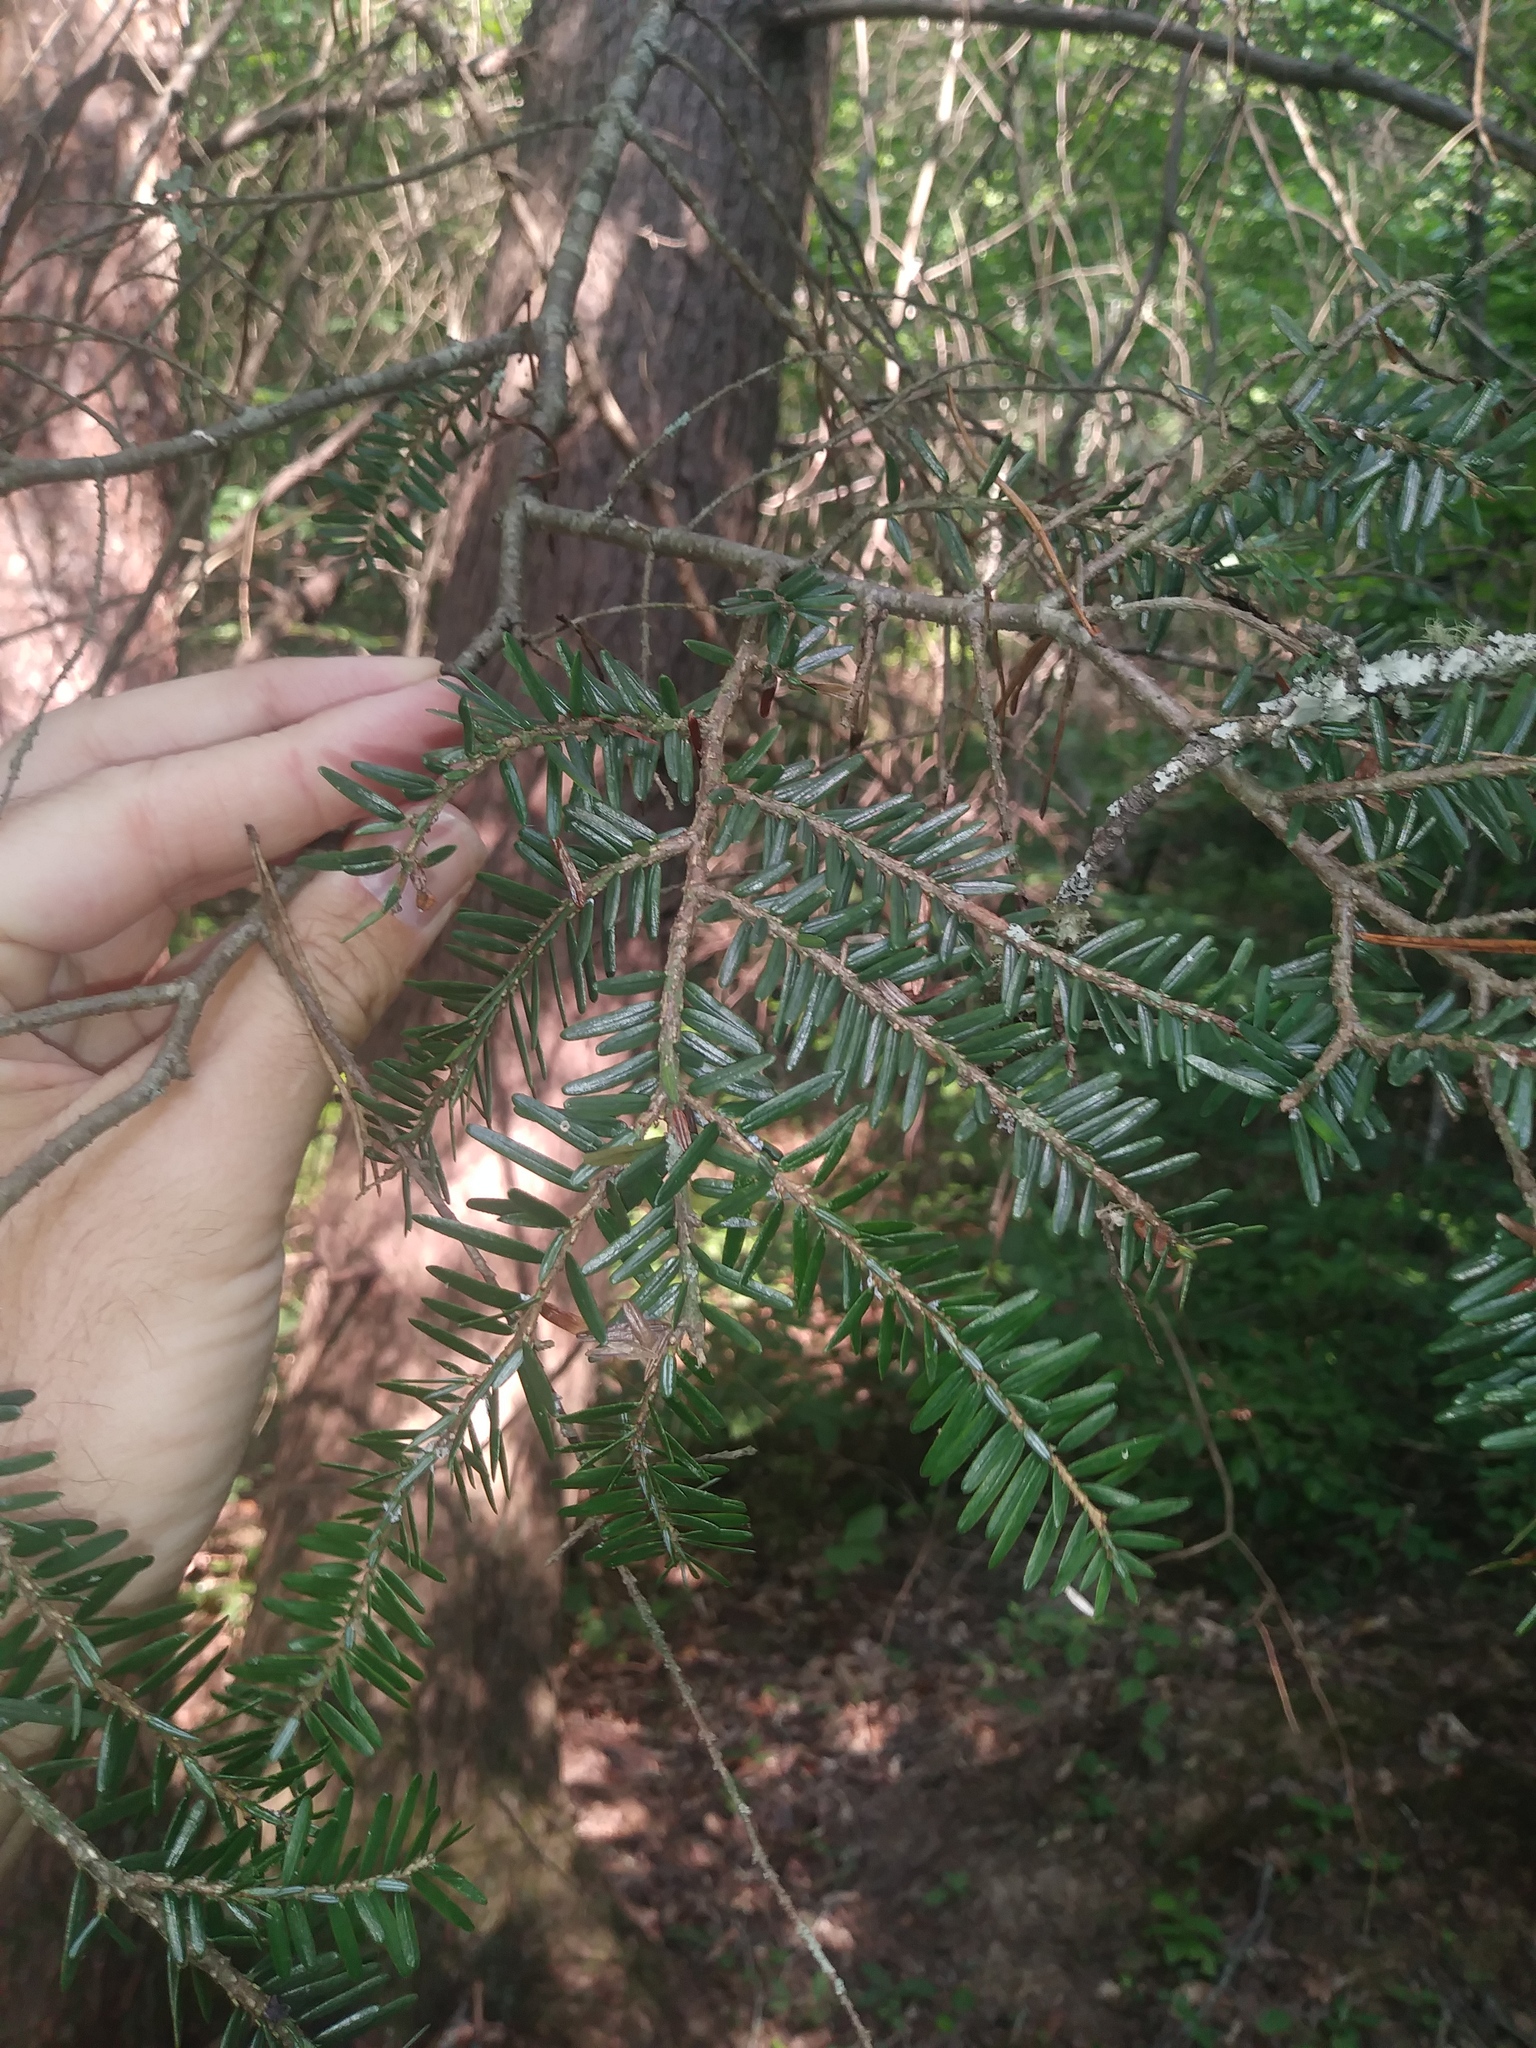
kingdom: Plantae
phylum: Tracheophyta
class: Pinopsida
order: Pinales
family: Pinaceae
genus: Tsuga
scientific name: Tsuga canadensis
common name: Eastern hemlock
